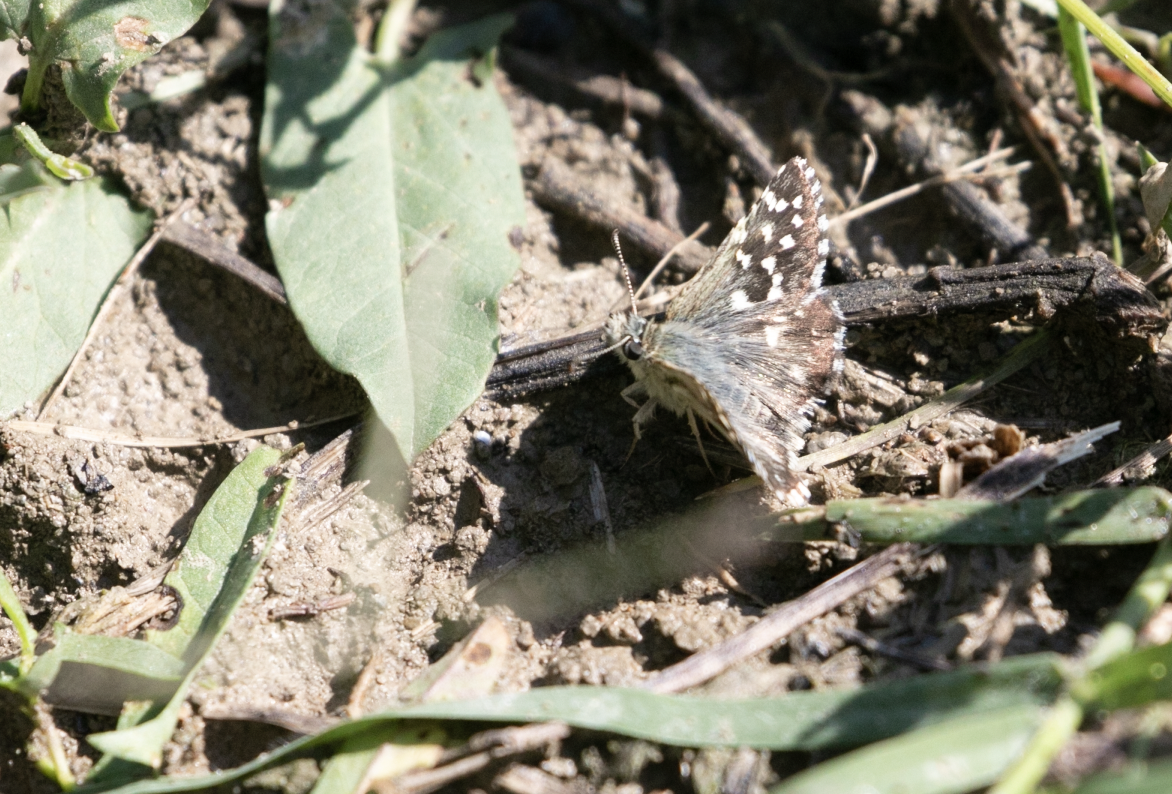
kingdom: Animalia
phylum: Arthropoda
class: Insecta
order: Lepidoptera
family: Hesperiidae
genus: Pyrgus
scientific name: Pyrgus malvoides
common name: Southern grizzled skipper
